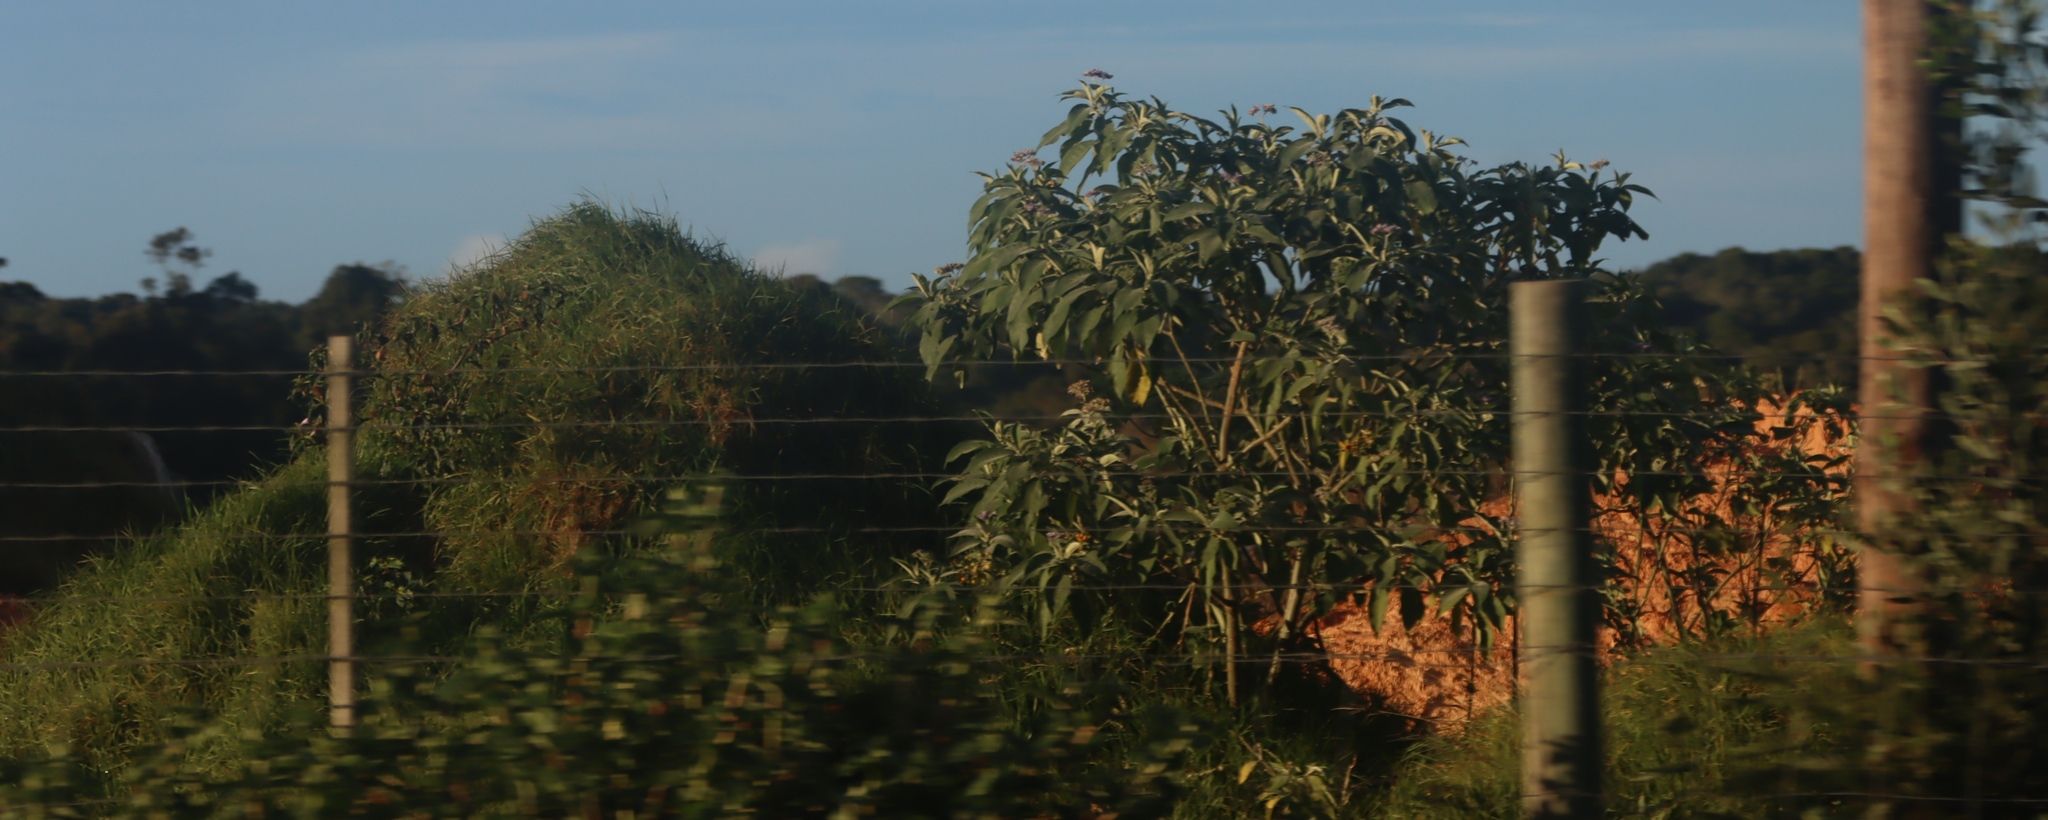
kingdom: Plantae
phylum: Tracheophyta
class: Magnoliopsida
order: Solanales
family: Solanaceae
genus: Solanum
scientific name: Solanum mauritianum
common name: Earleaf nightshade
